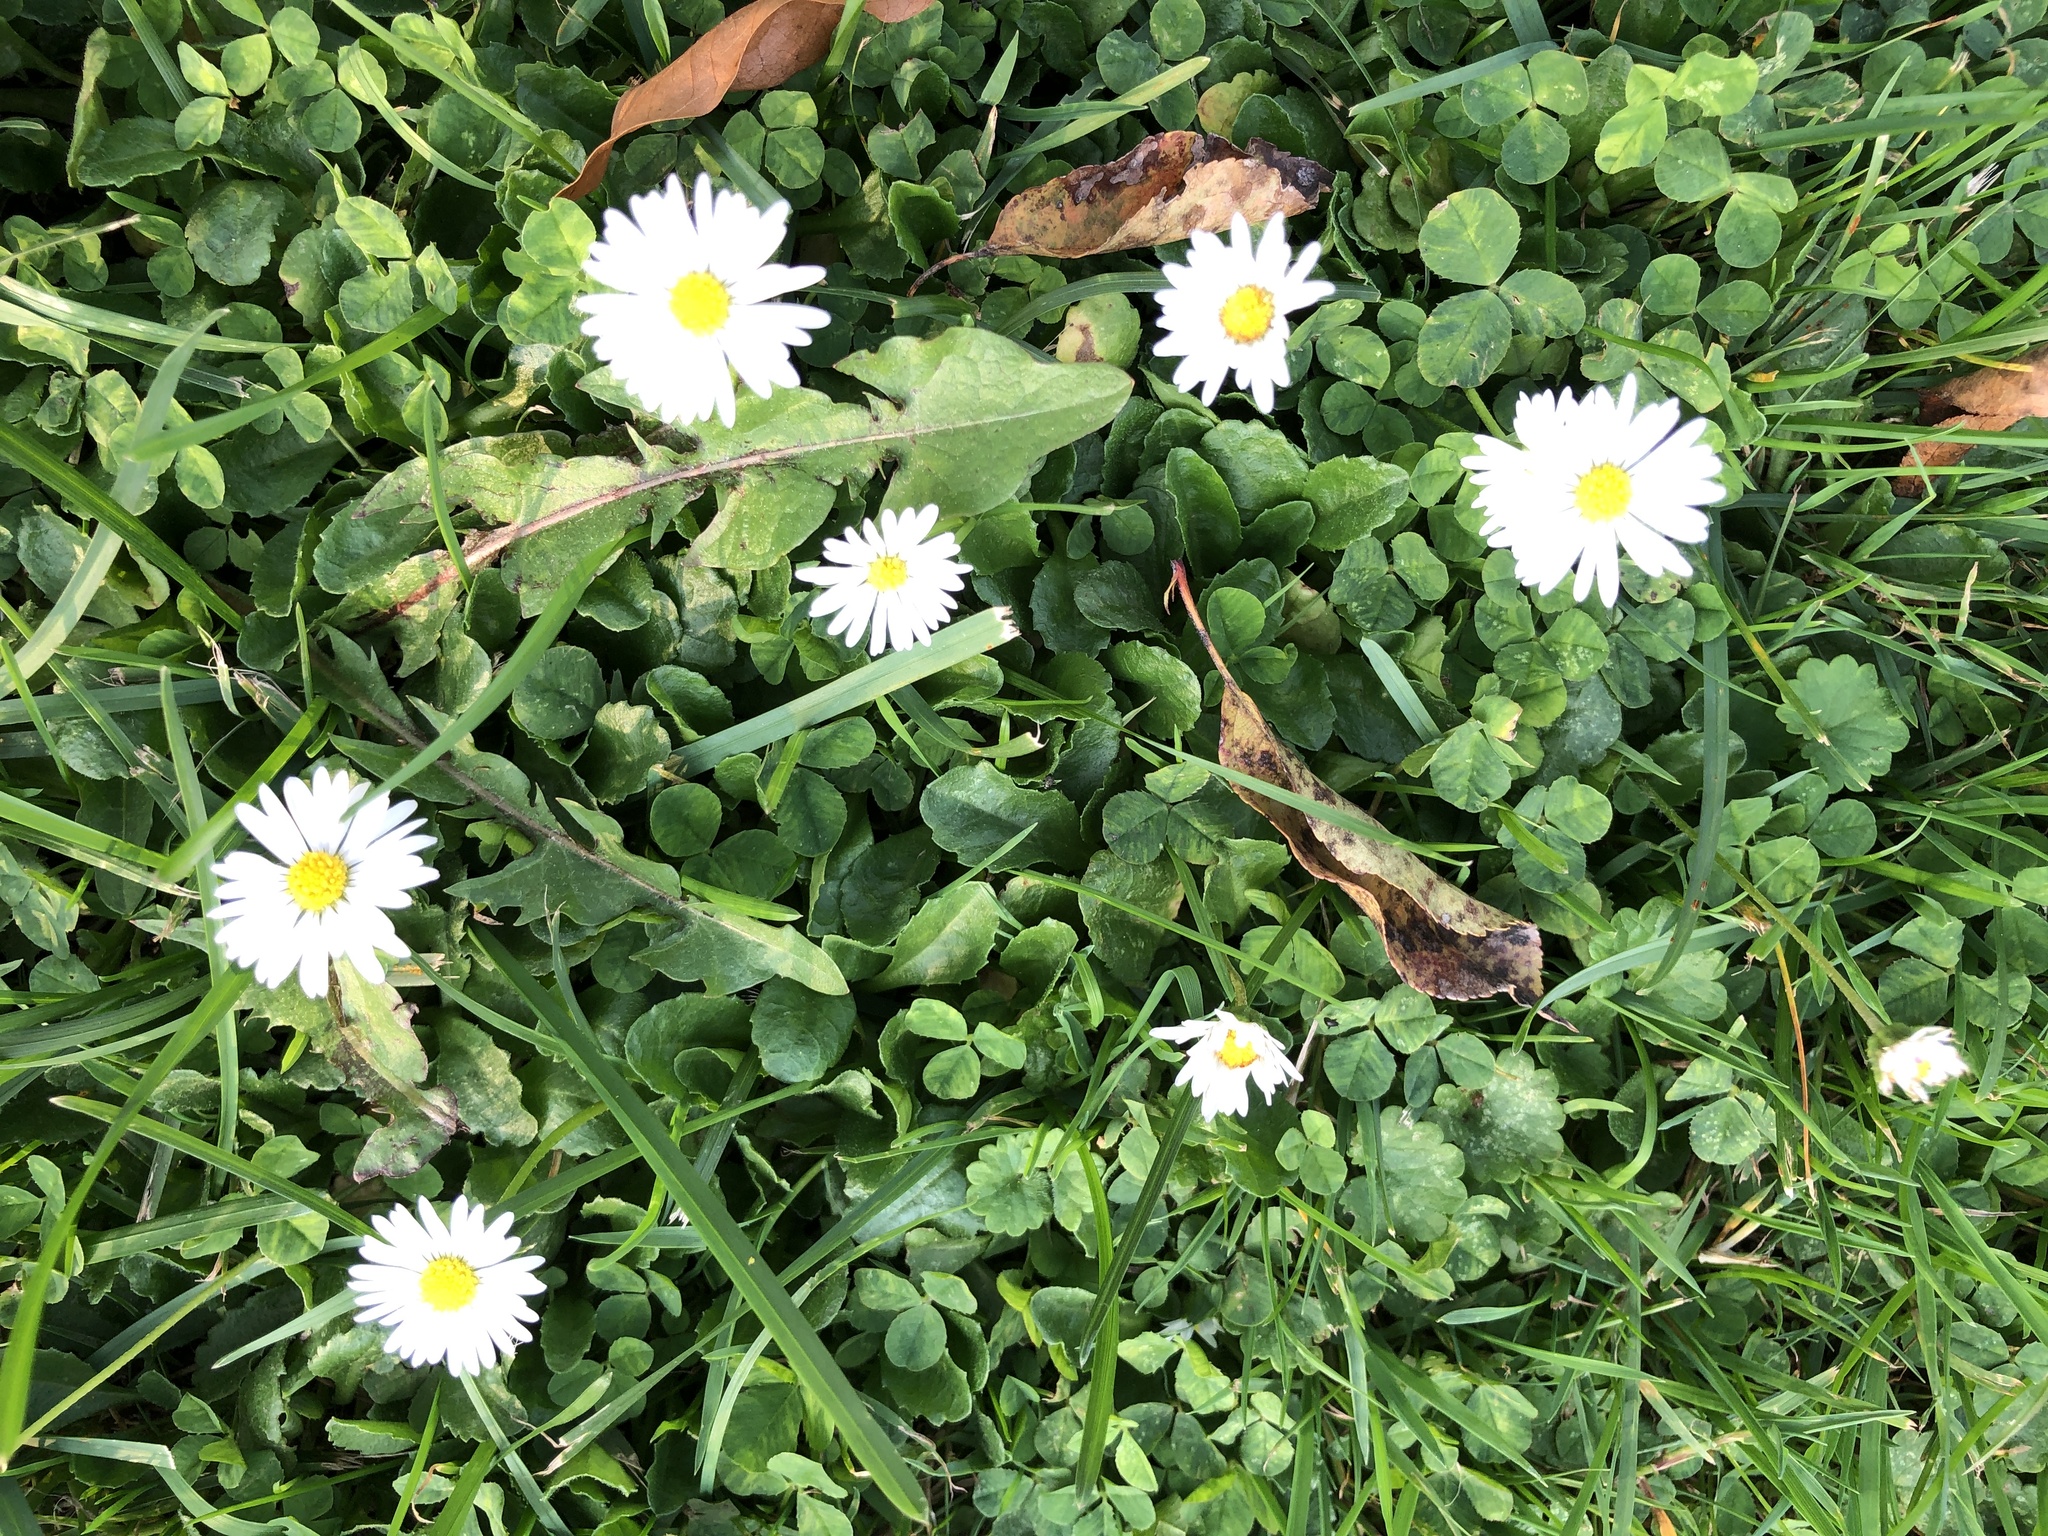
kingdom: Plantae
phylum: Tracheophyta
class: Magnoliopsida
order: Asterales
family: Asteraceae
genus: Bellis
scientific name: Bellis perennis
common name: Lawndaisy
